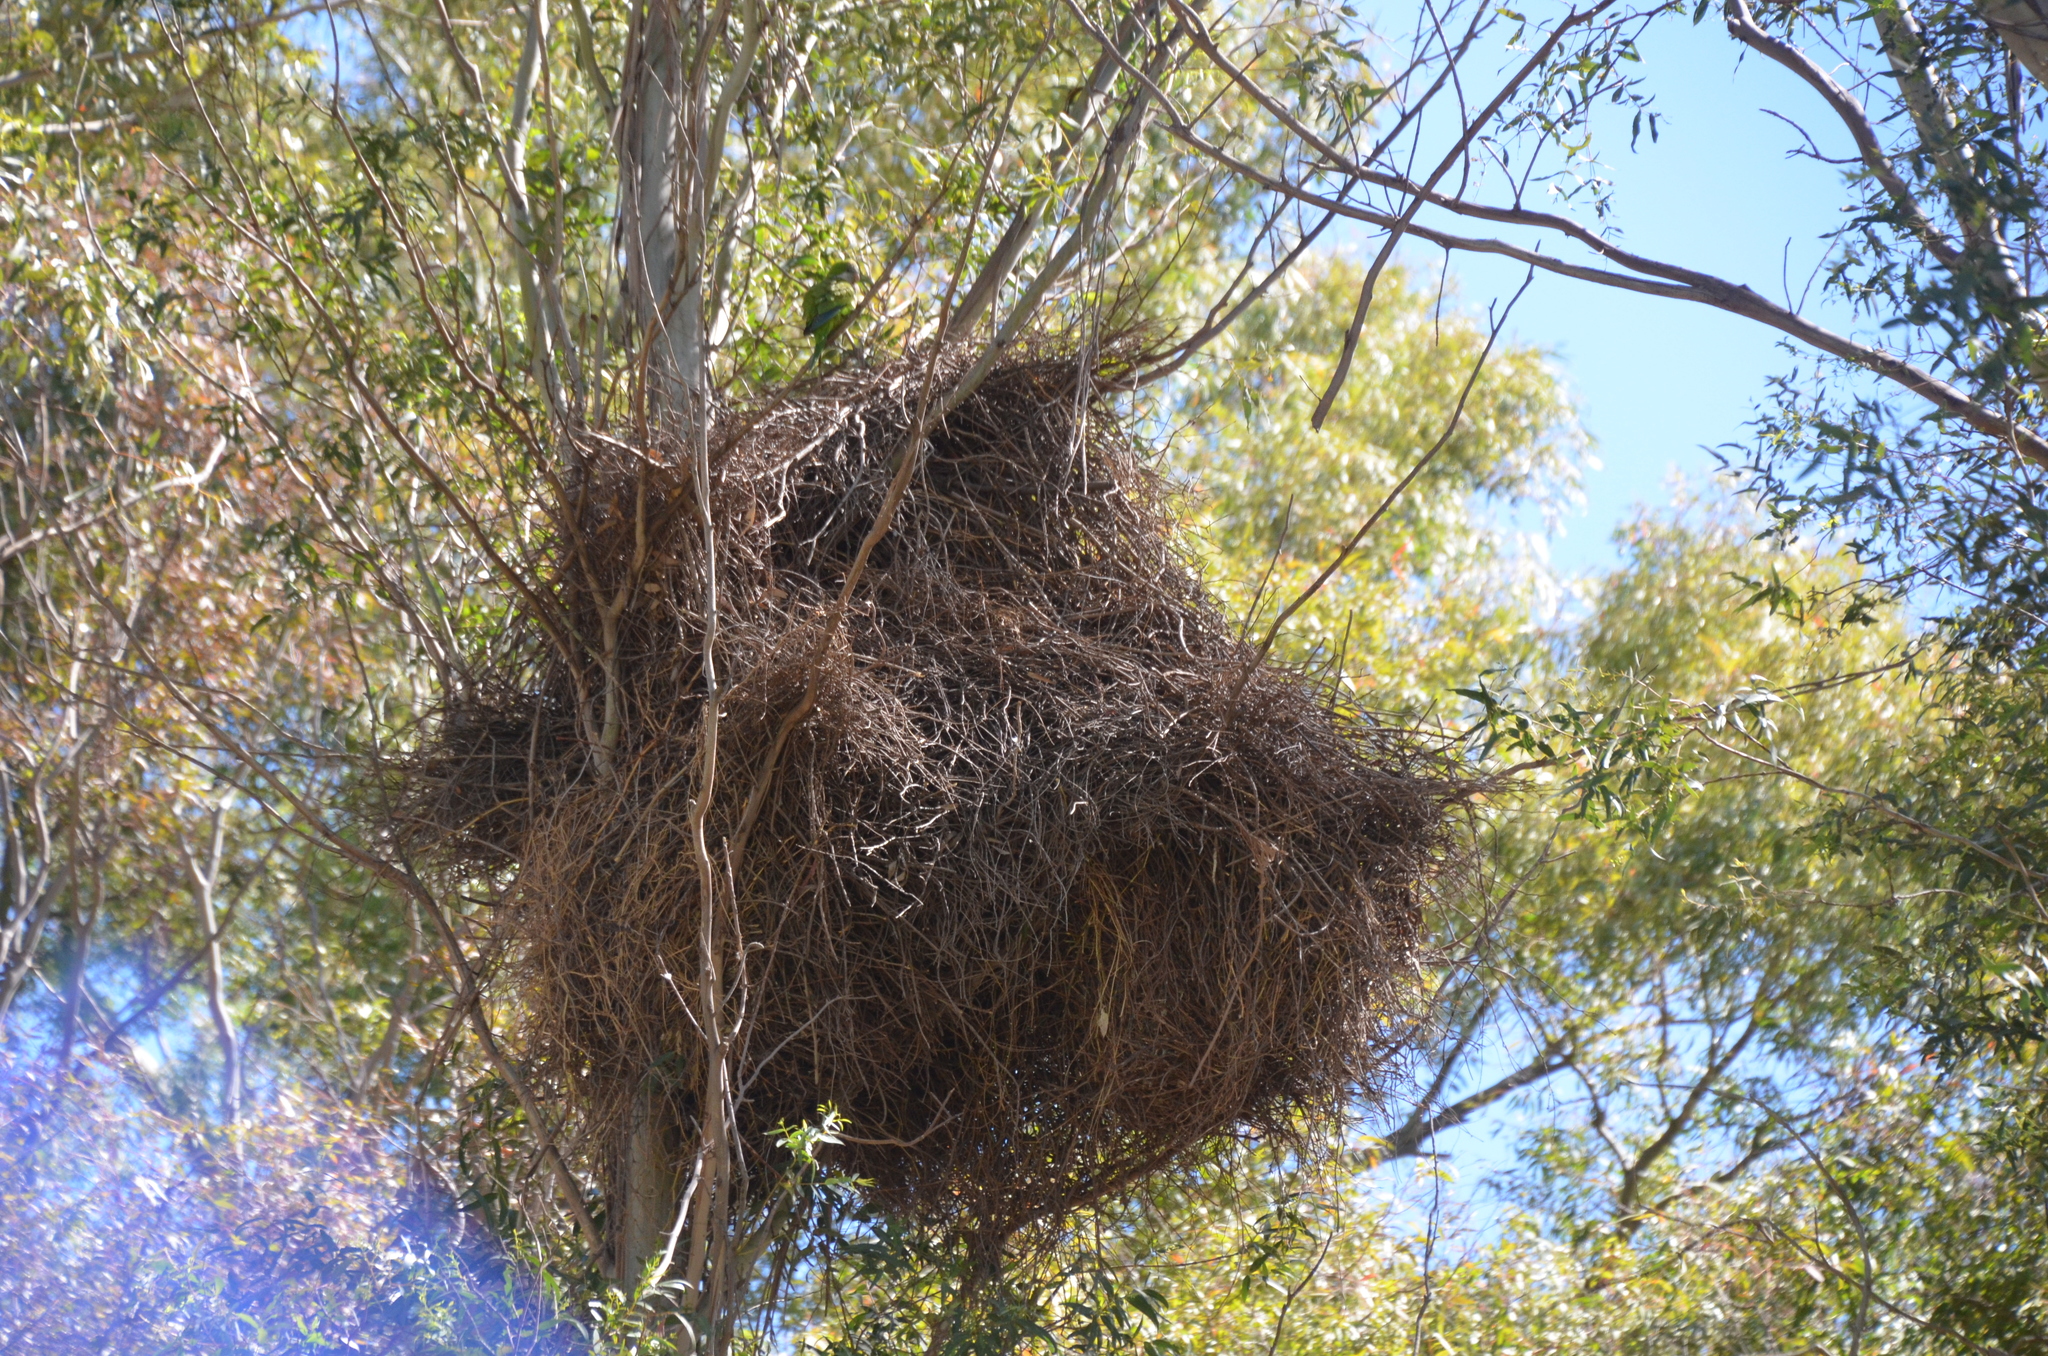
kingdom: Animalia
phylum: Chordata
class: Aves
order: Psittaciformes
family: Psittacidae
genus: Myiopsitta
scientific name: Myiopsitta monachus
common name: Monk parakeet
